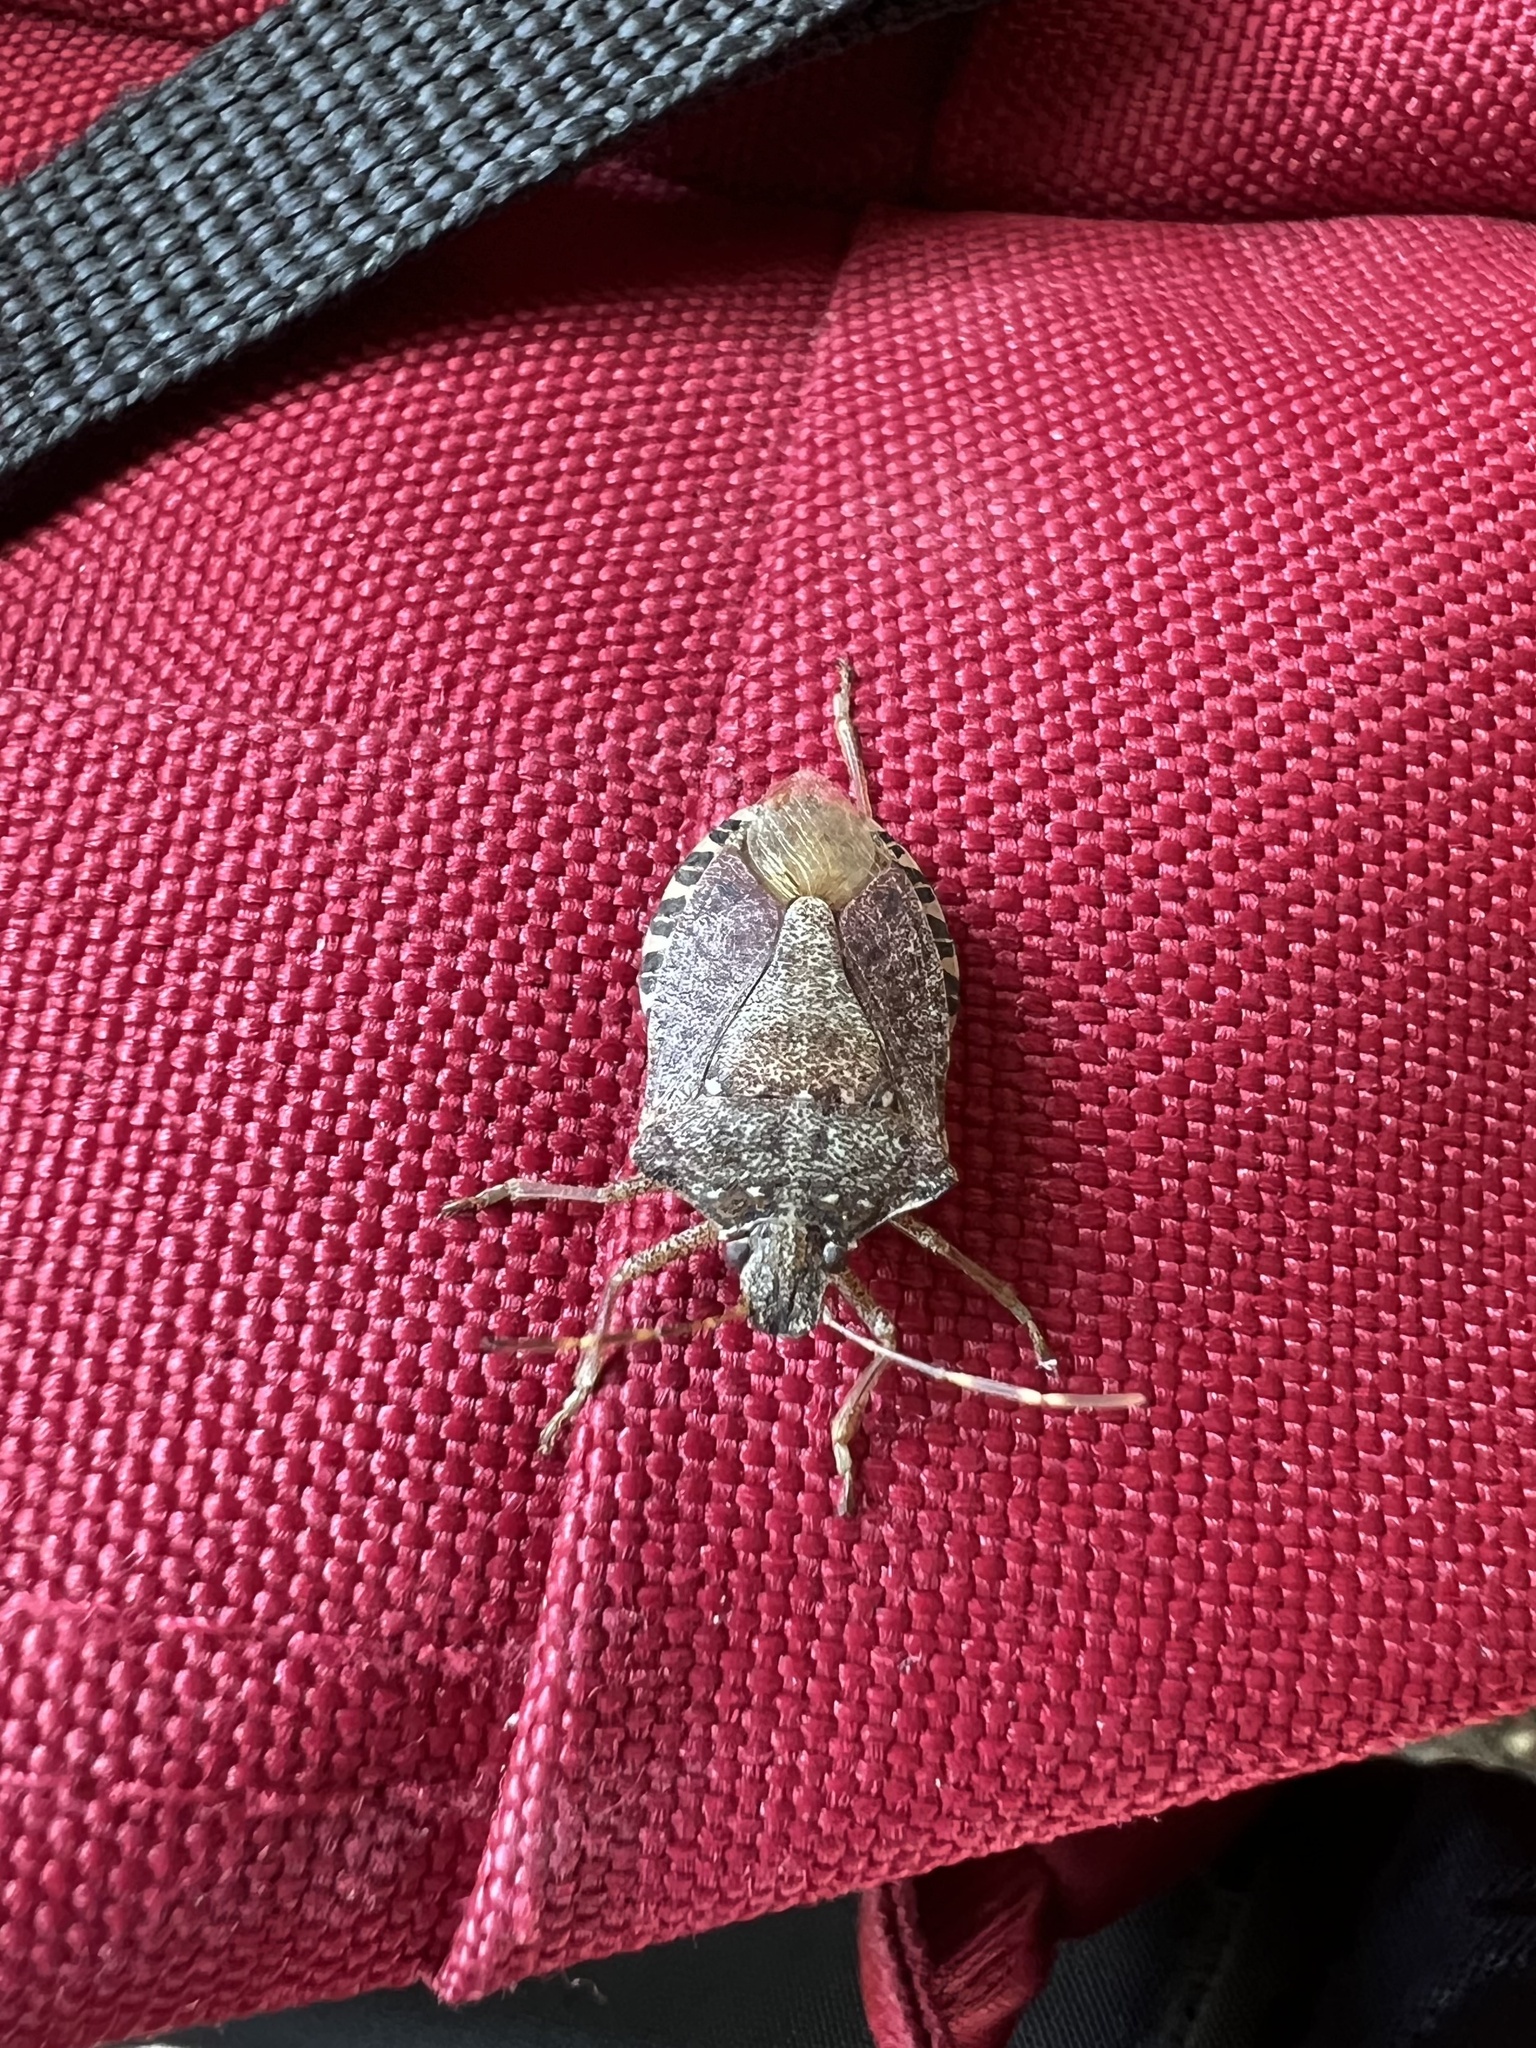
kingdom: Animalia
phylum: Arthropoda
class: Insecta
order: Hemiptera
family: Pentatomidae
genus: Halyomorpha
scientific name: Halyomorpha halys
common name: Brown marmorated stink bug
